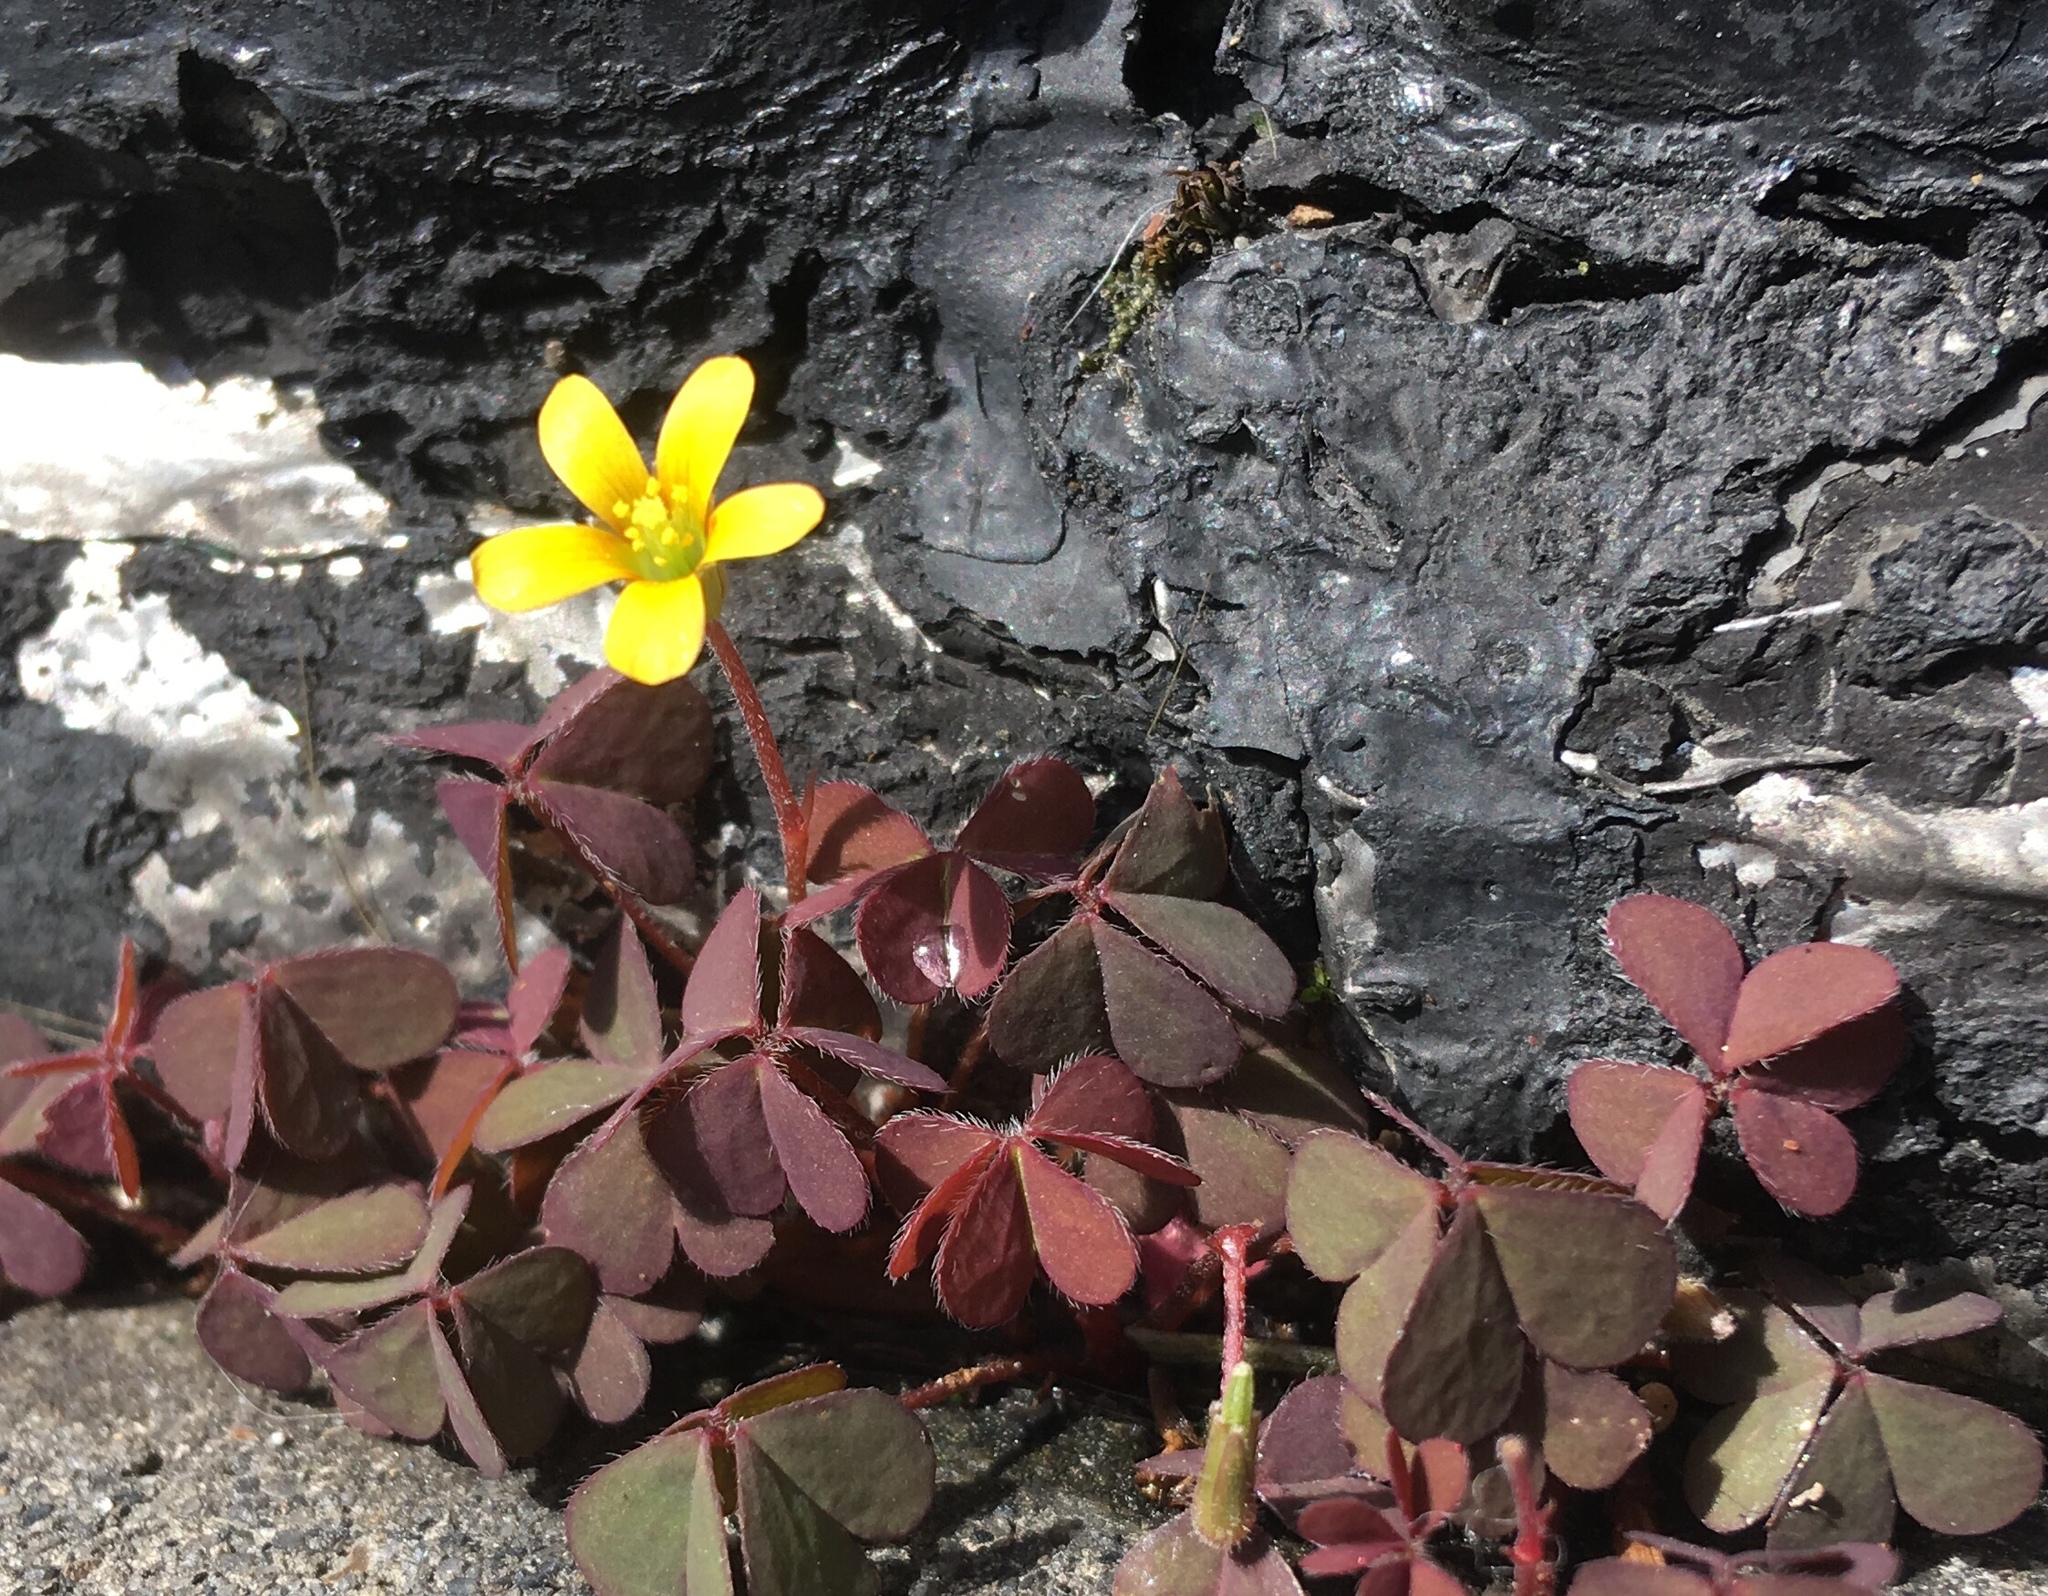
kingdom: Plantae
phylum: Tracheophyta
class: Magnoliopsida
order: Oxalidales
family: Oxalidaceae
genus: Oxalis
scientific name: Oxalis corniculata
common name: Procumbent yellow-sorrel
